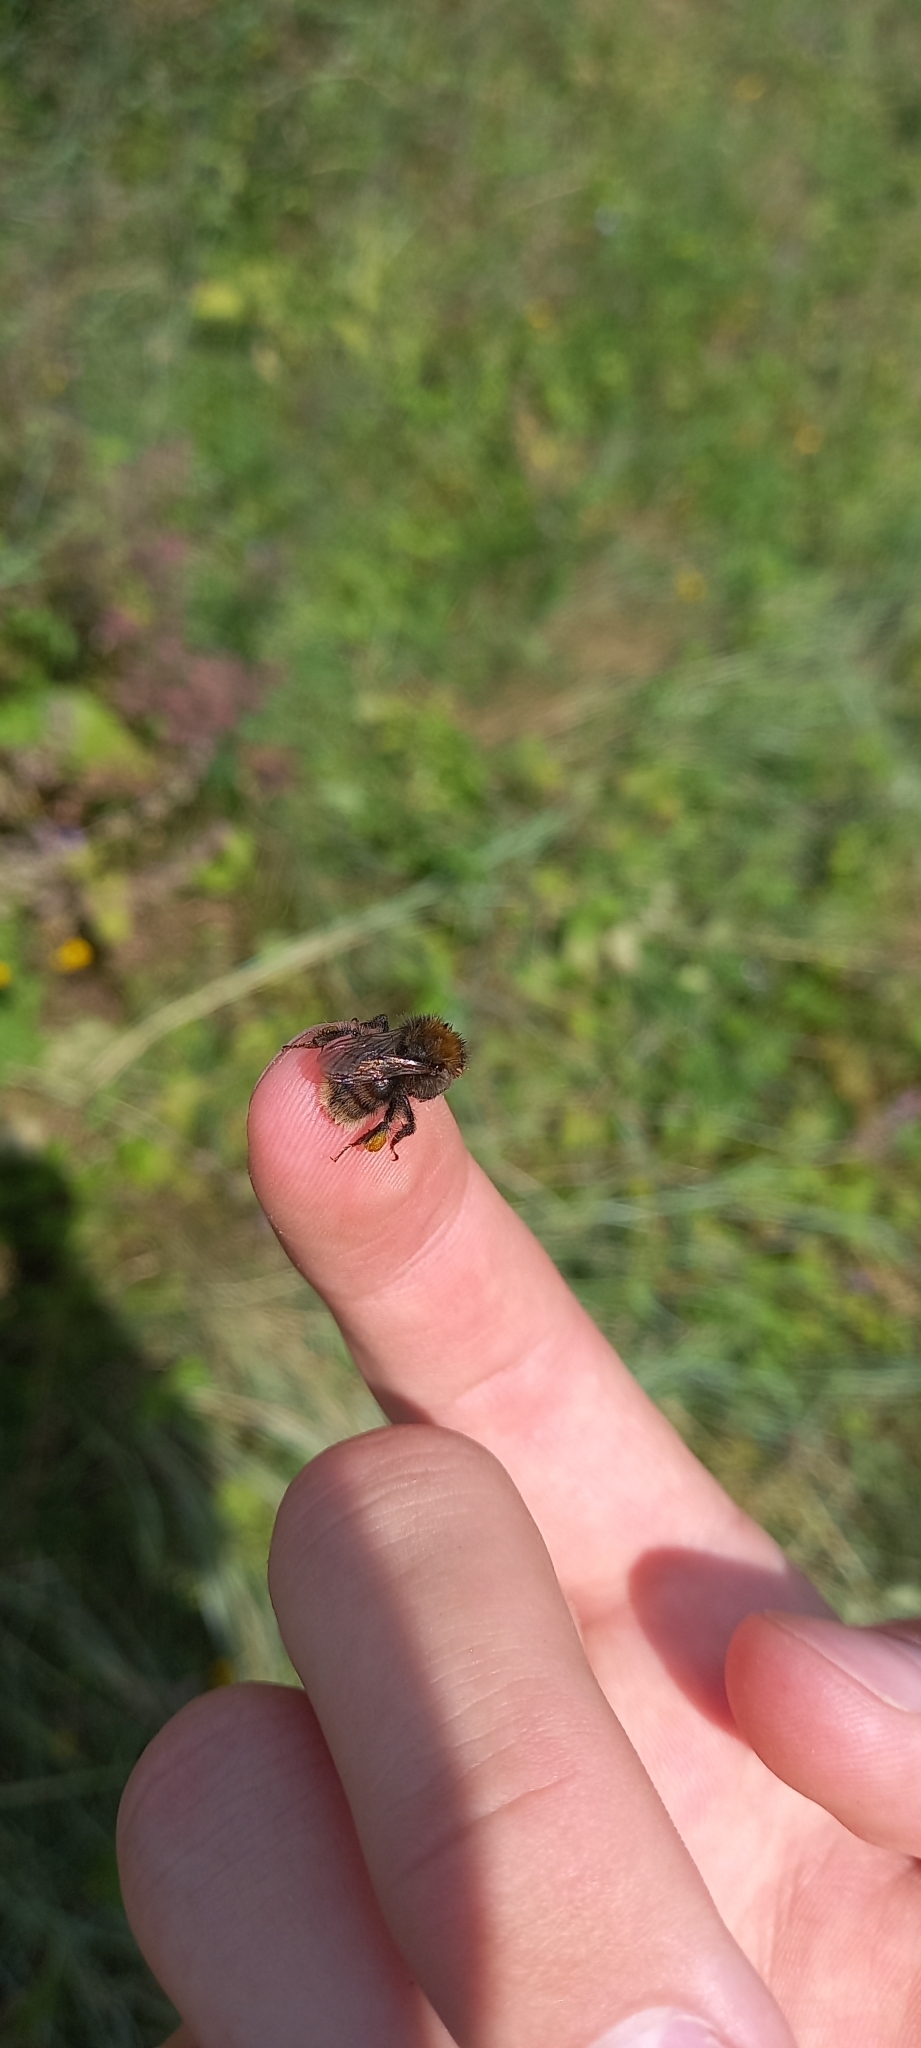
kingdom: Animalia
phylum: Arthropoda
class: Insecta
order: Hymenoptera
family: Apidae
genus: Bombus
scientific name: Bombus humilis
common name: Brown-banded carder-bee
